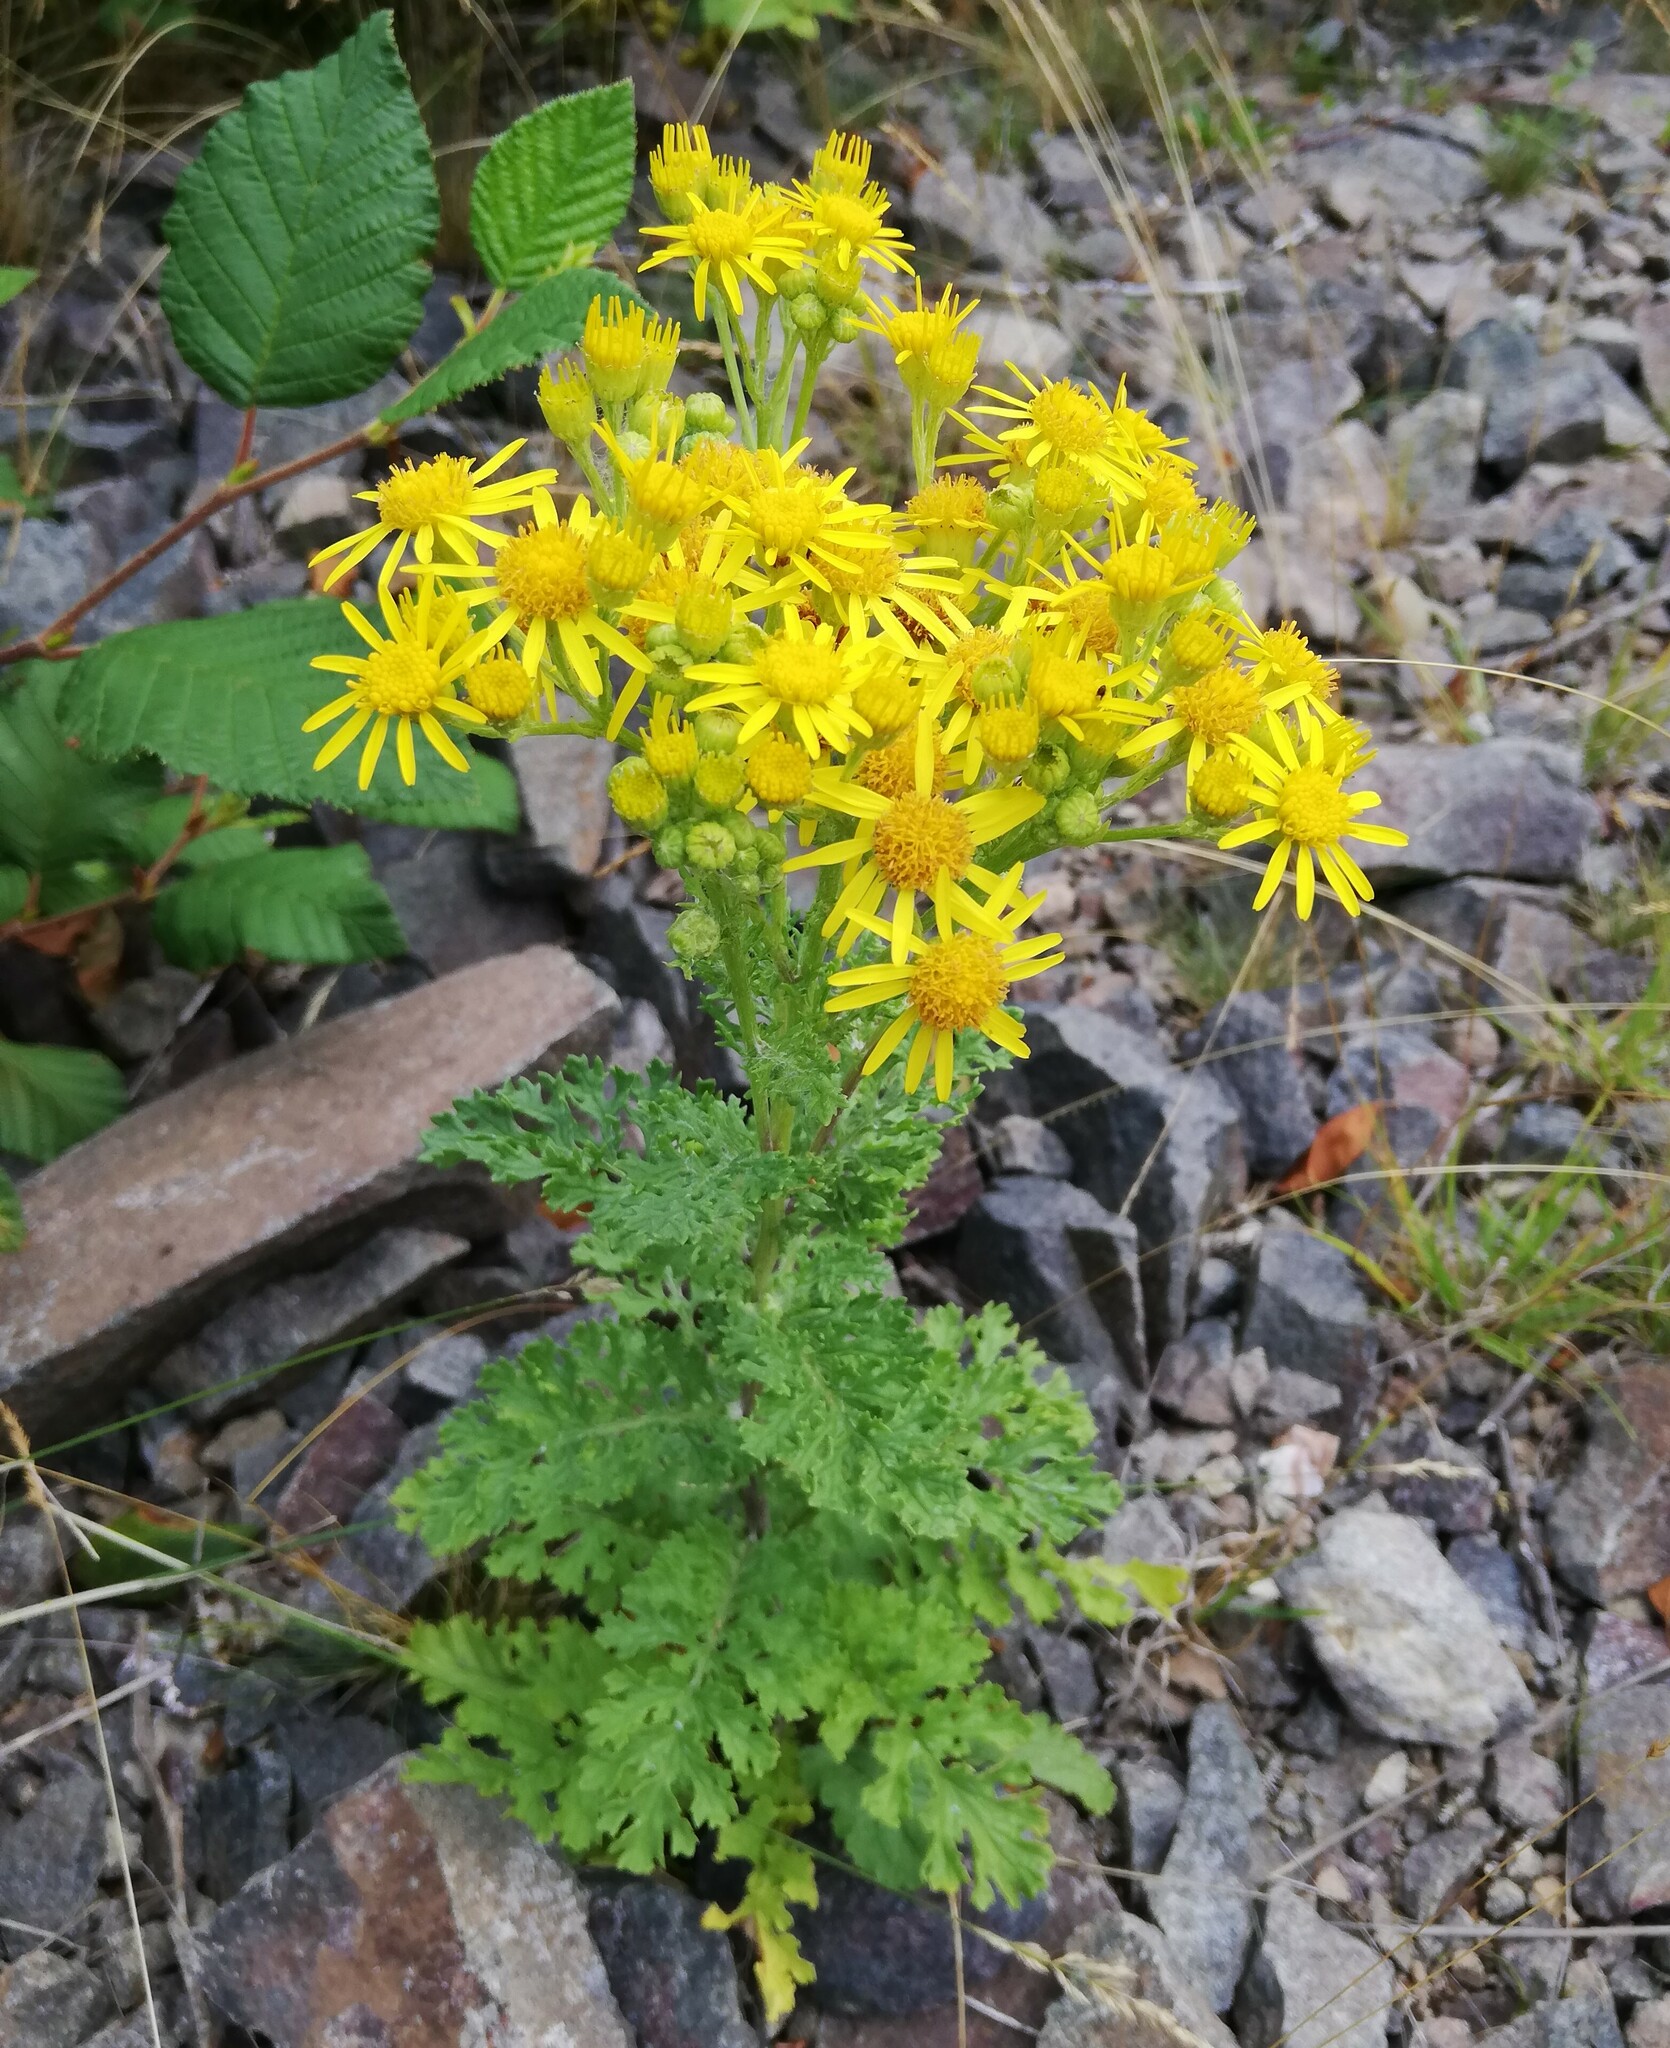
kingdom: Plantae
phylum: Tracheophyta
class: Magnoliopsida
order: Asterales
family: Asteraceae
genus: Jacobaea
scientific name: Jacobaea vulgaris
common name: Stinking willie
